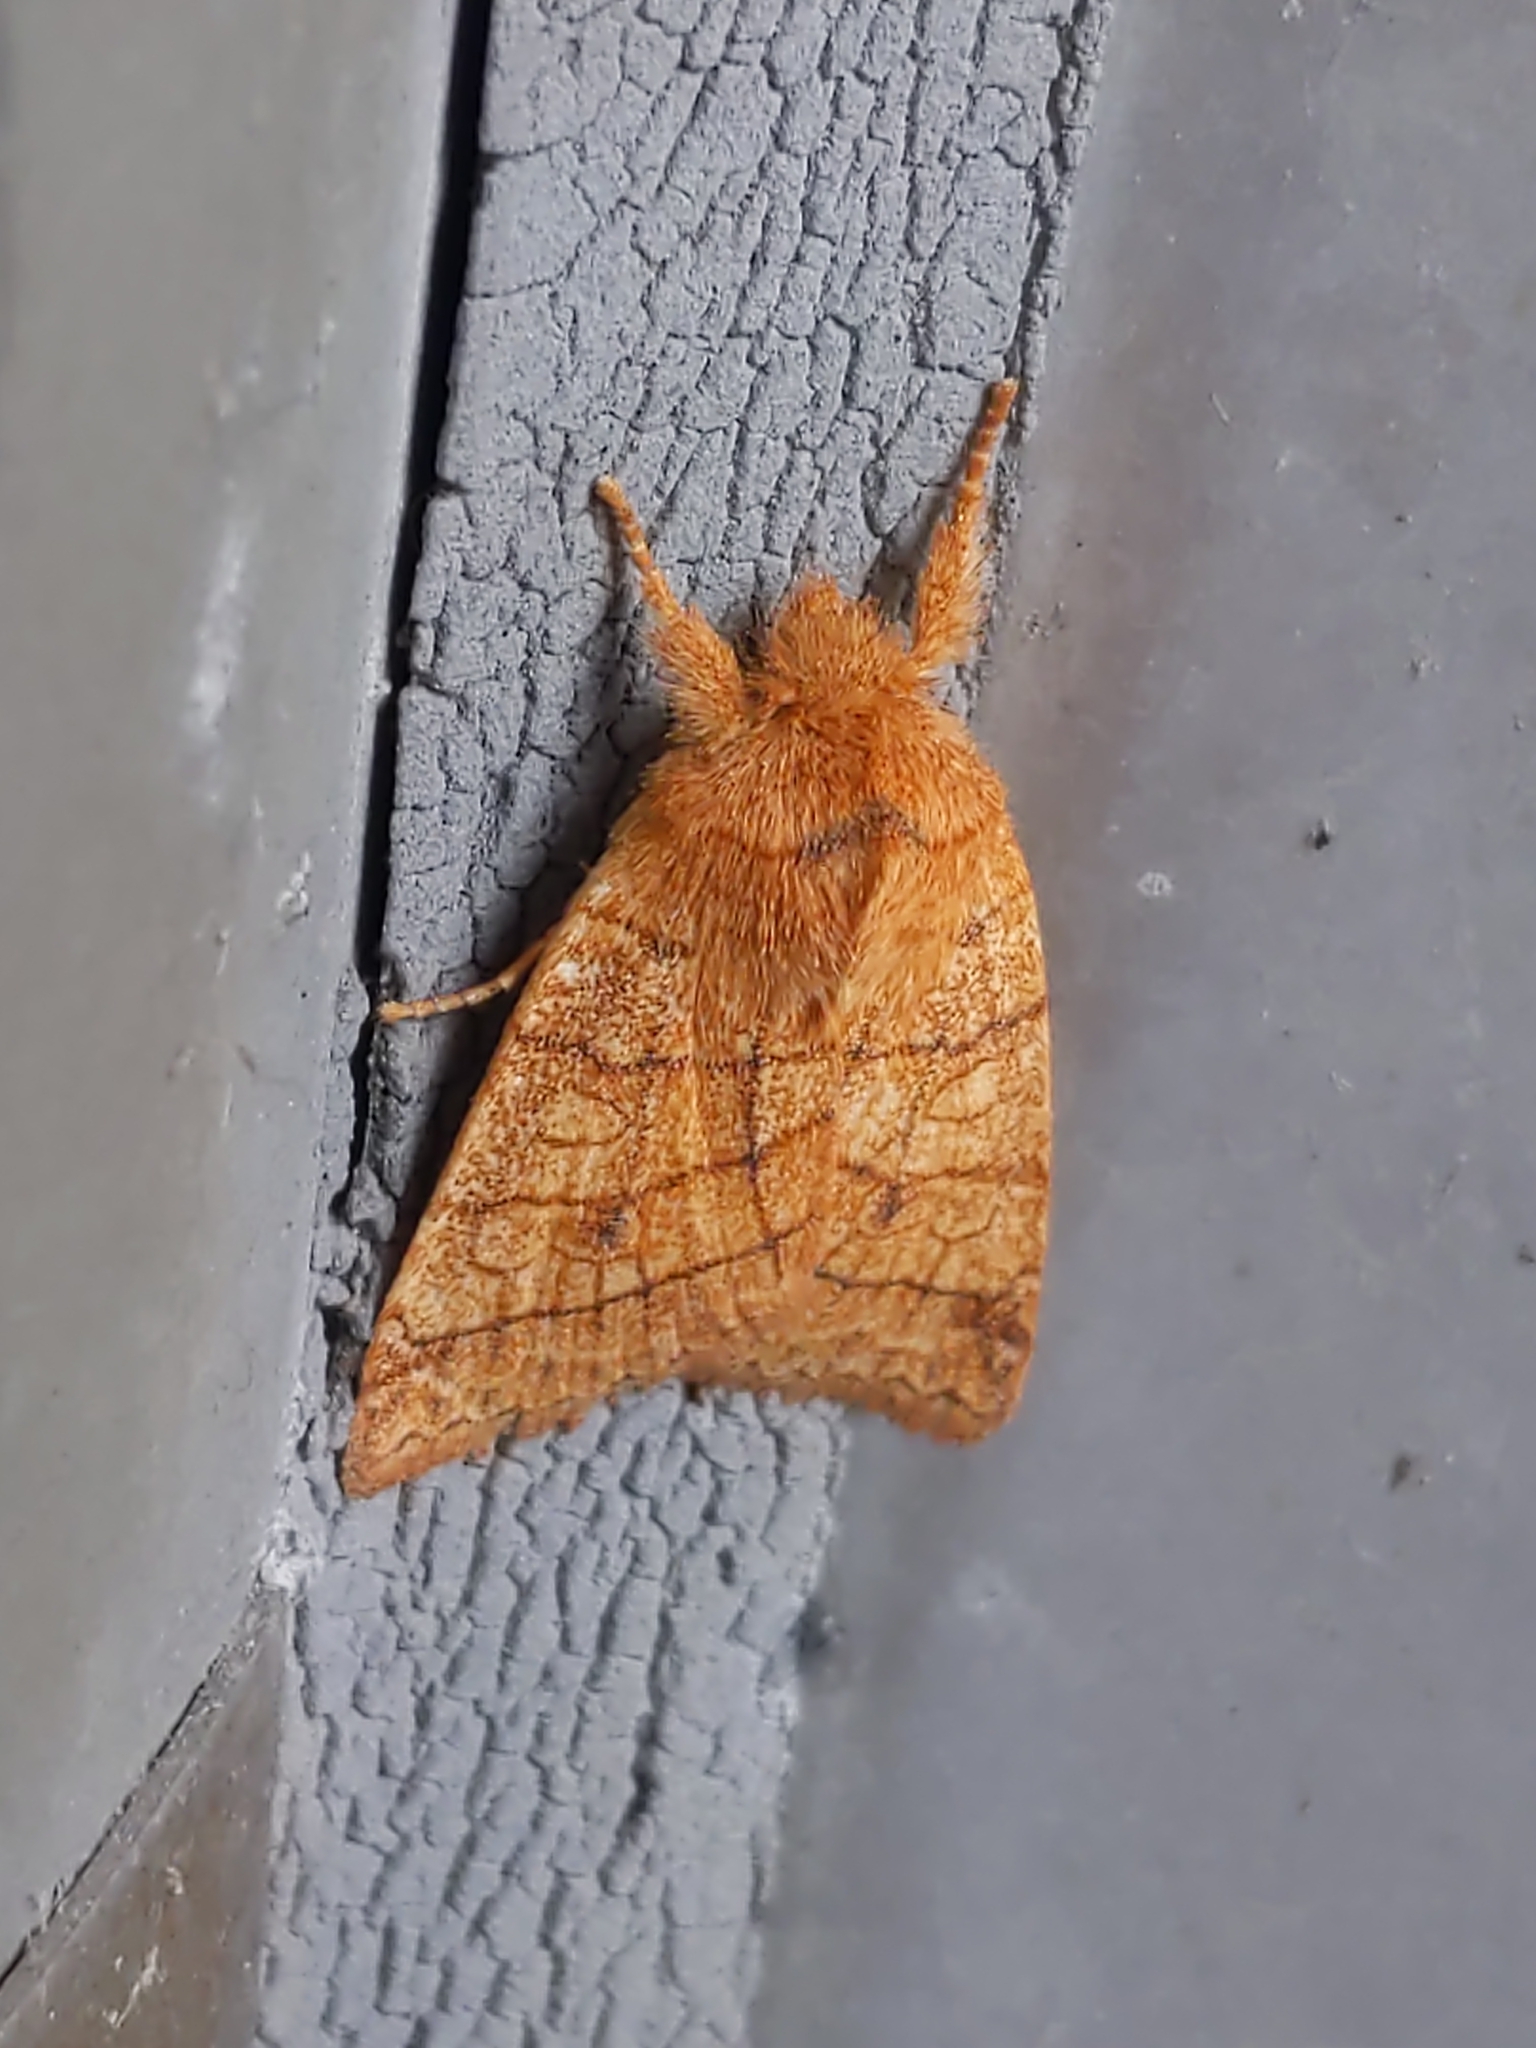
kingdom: Animalia
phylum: Arthropoda
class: Insecta
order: Lepidoptera
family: Noctuidae
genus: Pyreferra
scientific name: Pyreferra hesperidago
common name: Mustard sallow
